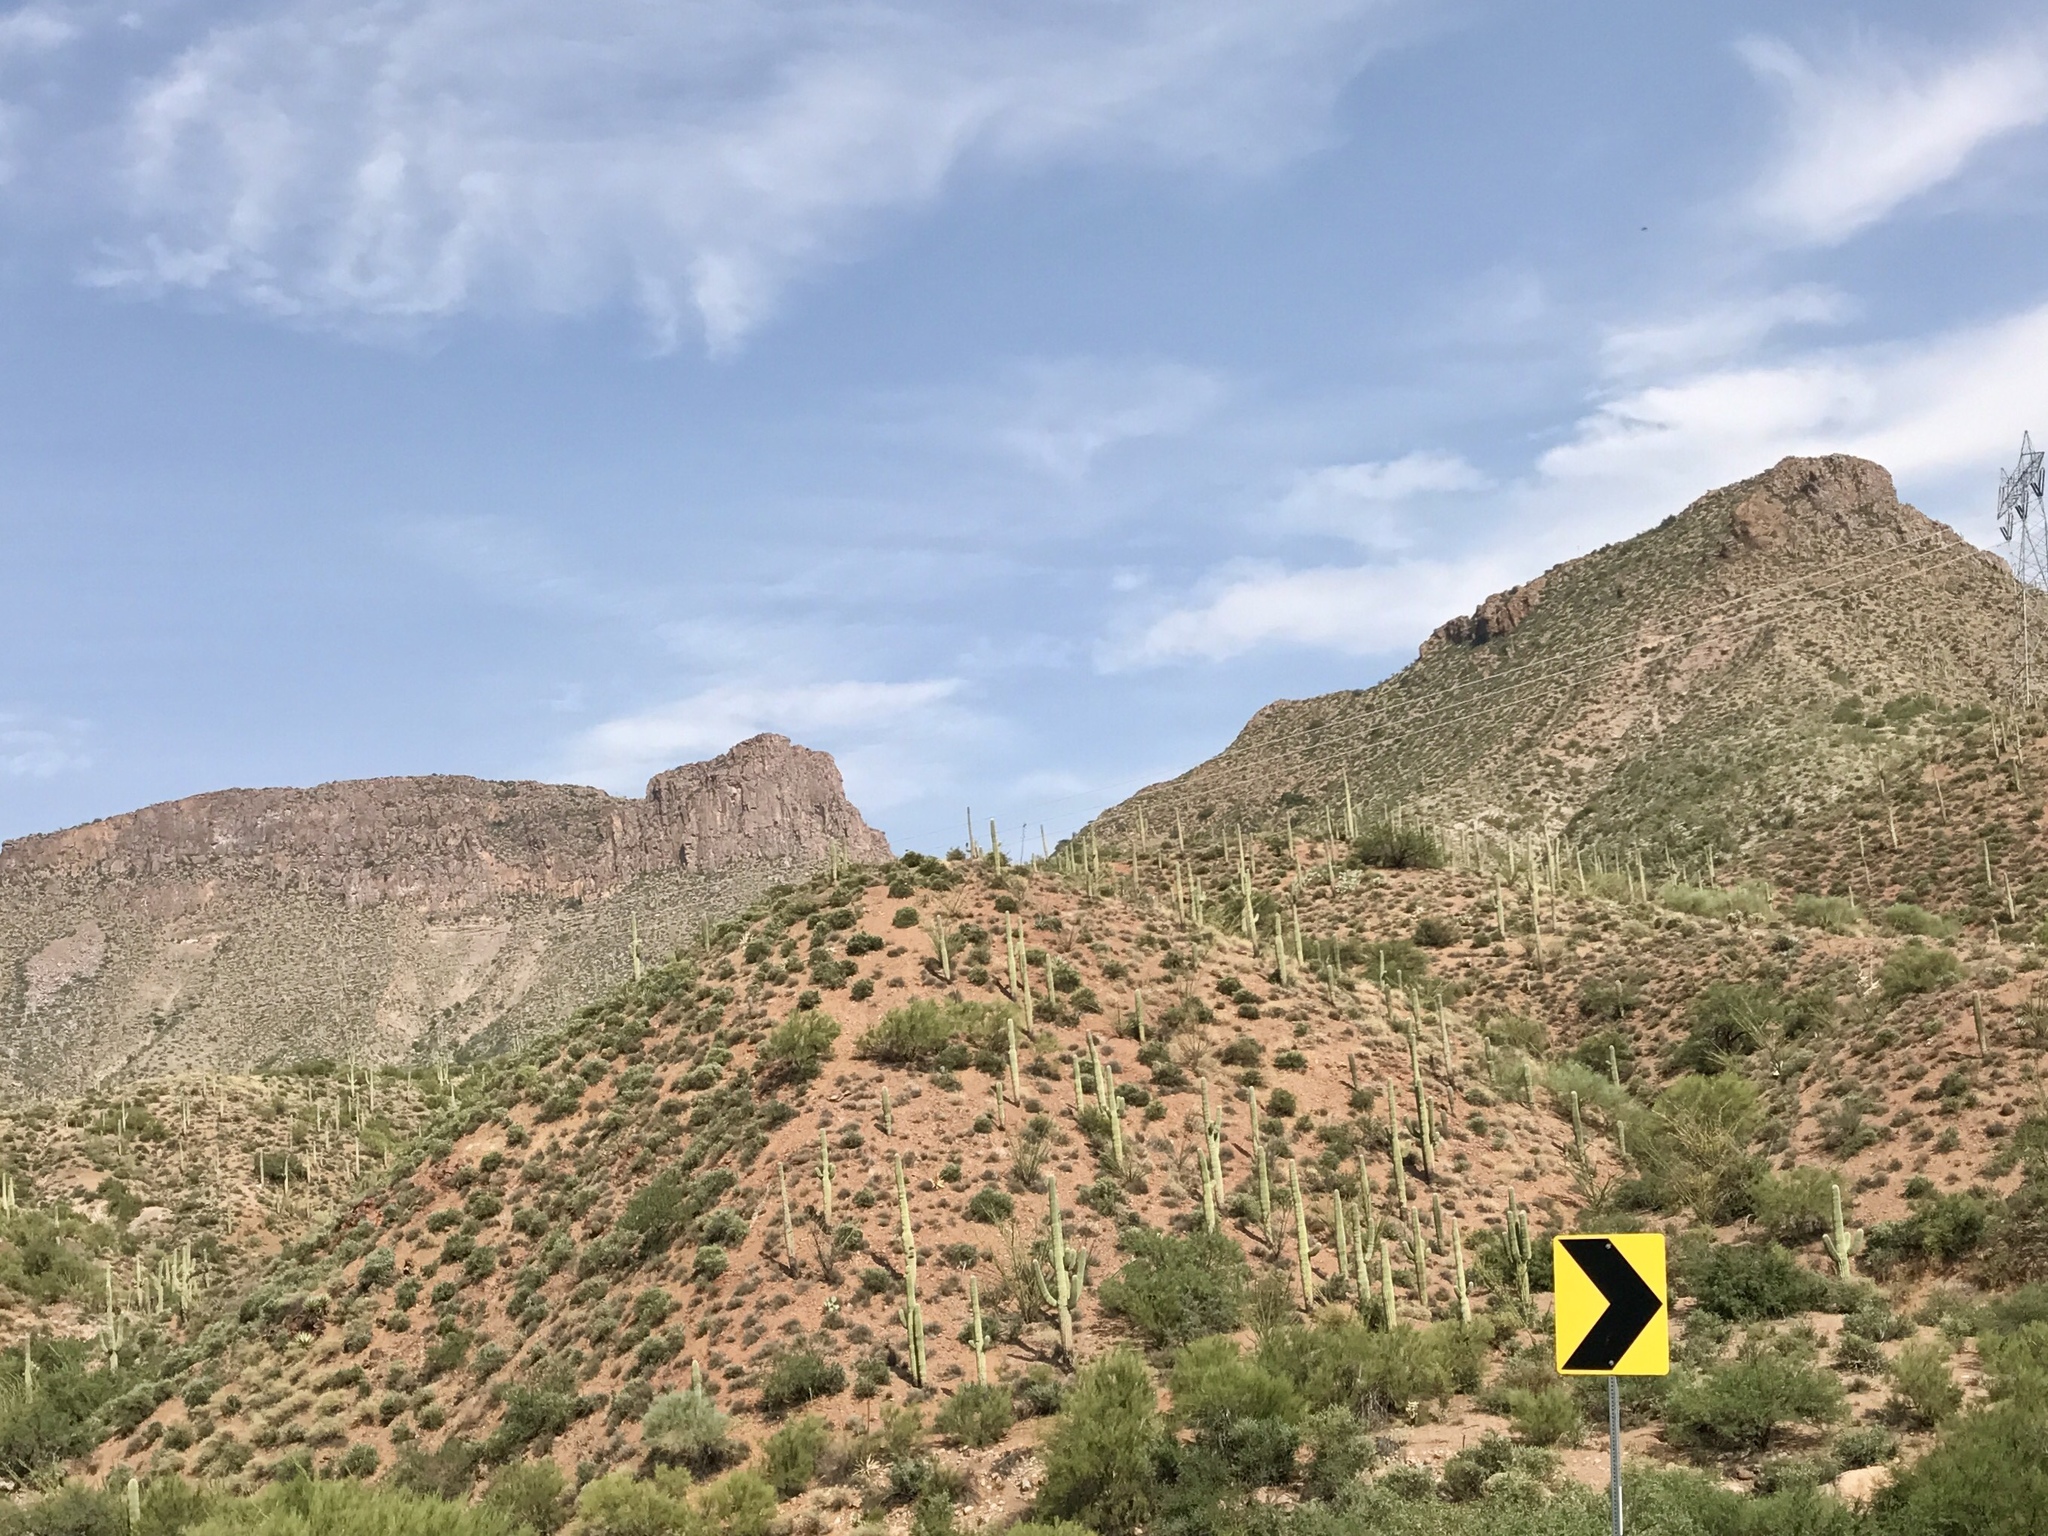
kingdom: Plantae
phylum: Tracheophyta
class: Magnoliopsida
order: Caryophyllales
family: Cactaceae
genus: Carnegiea
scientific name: Carnegiea gigantea
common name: Saguaro
